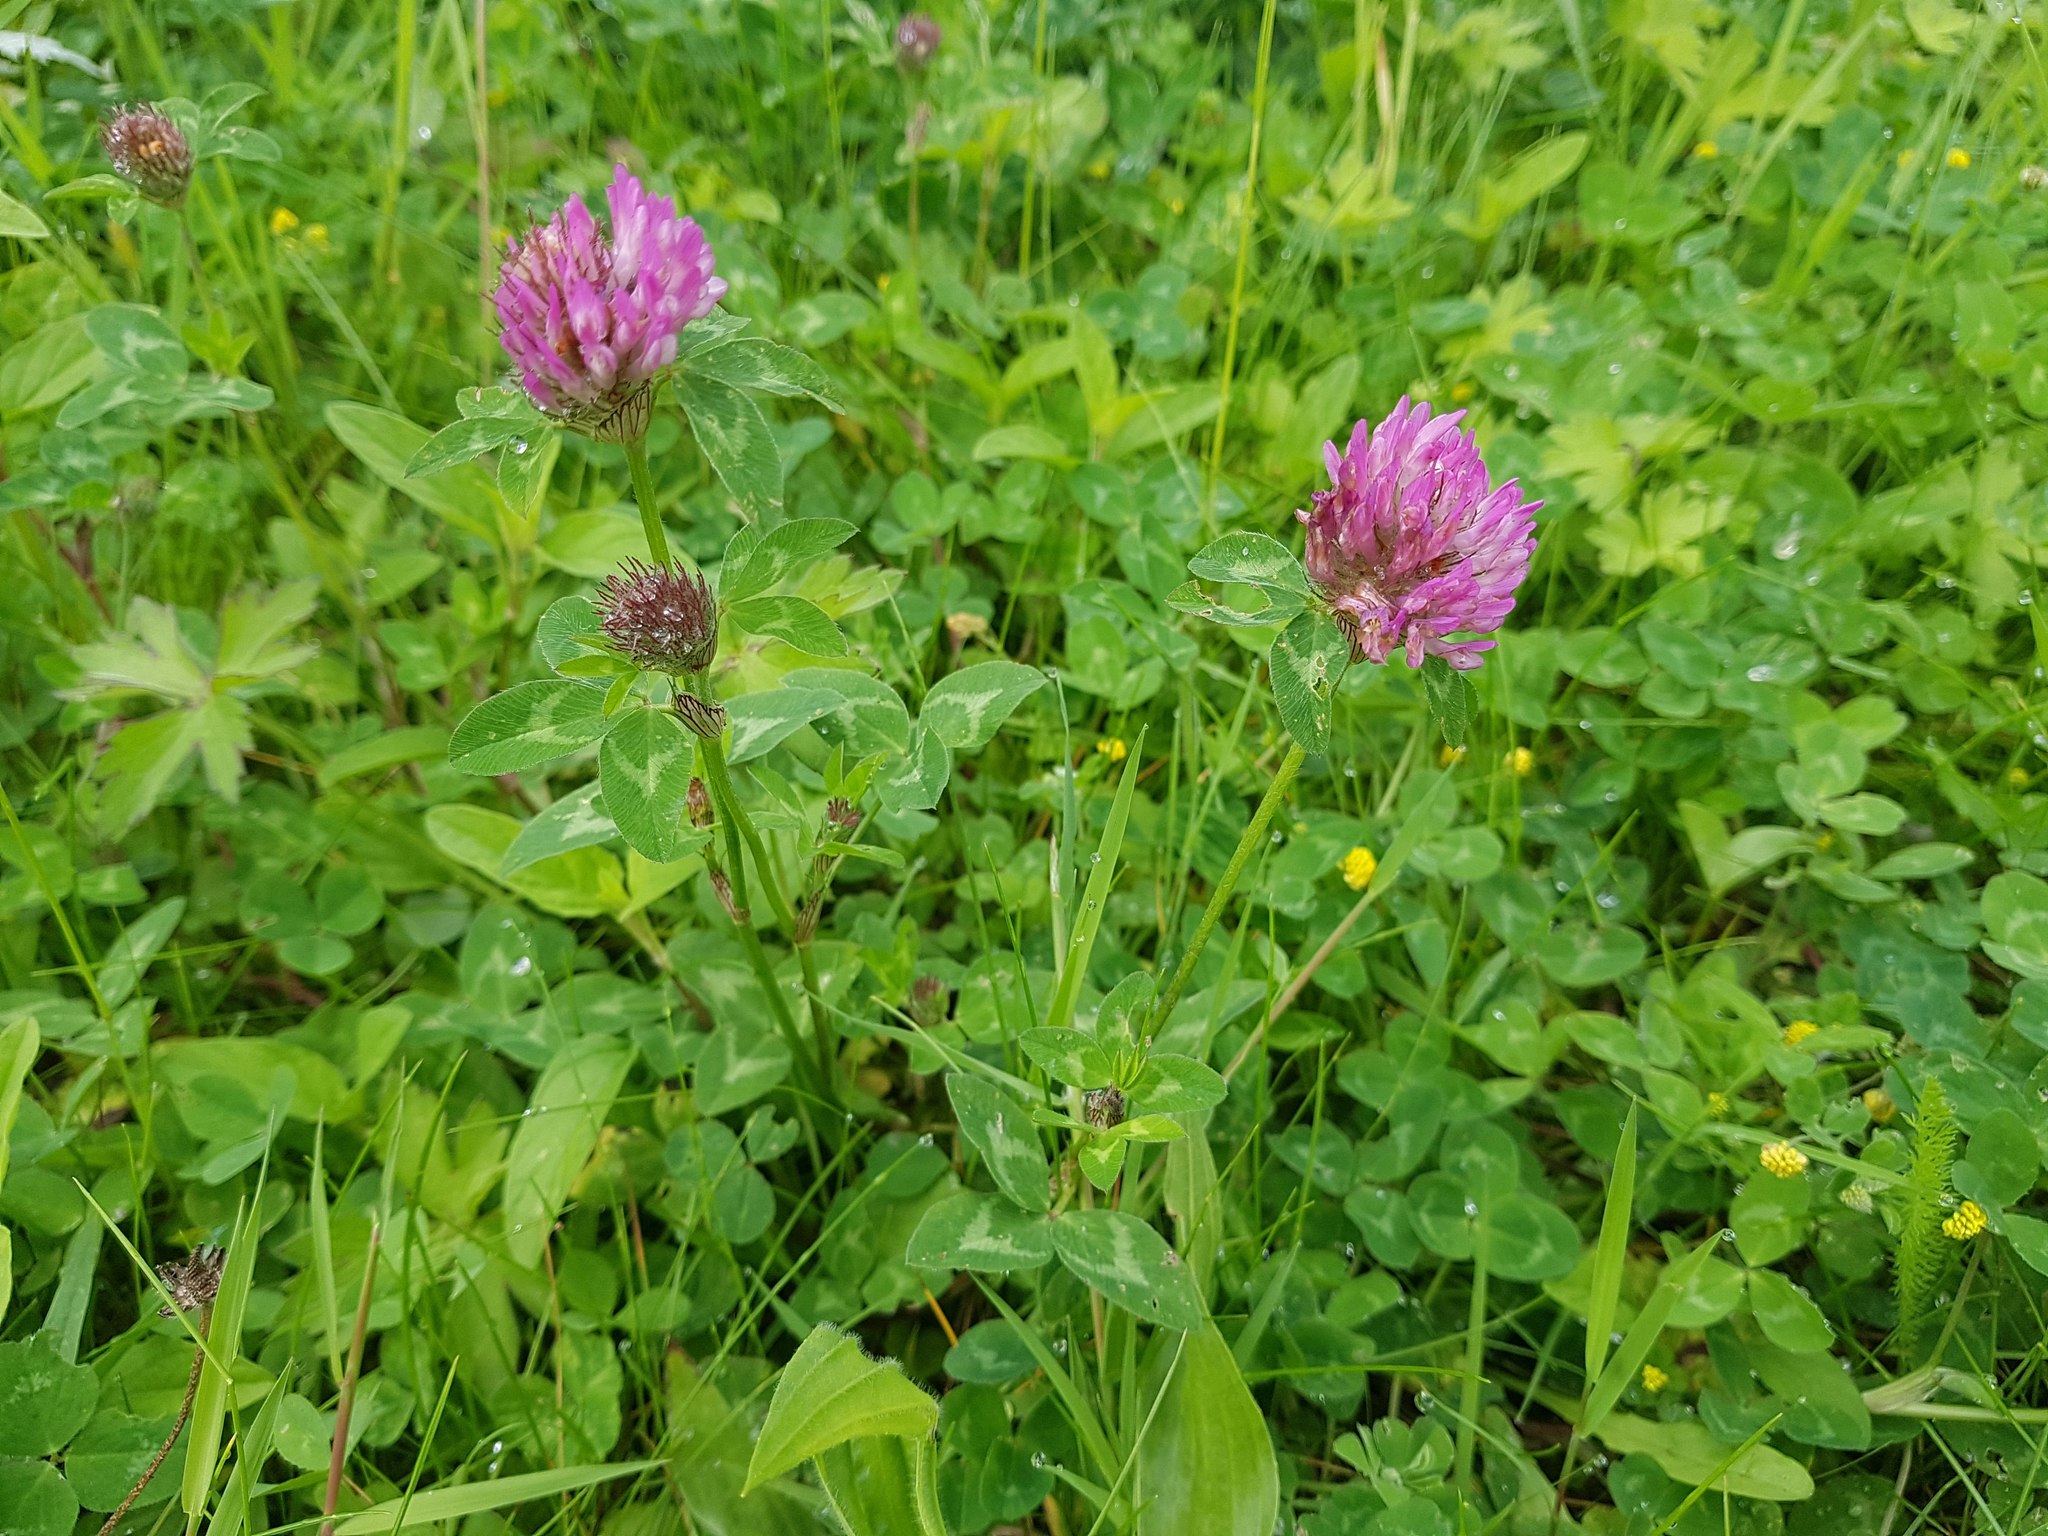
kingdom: Plantae
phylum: Tracheophyta
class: Magnoliopsida
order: Fabales
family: Fabaceae
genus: Trifolium
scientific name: Trifolium pratense
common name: Red clover
